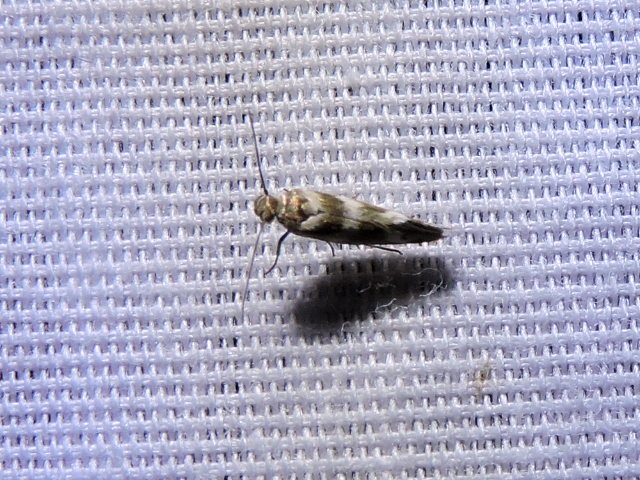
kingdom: Animalia
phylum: Arthropoda
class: Insecta
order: Lepidoptera
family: Scythrididae
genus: Scythris
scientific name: Scythris trivinctella
